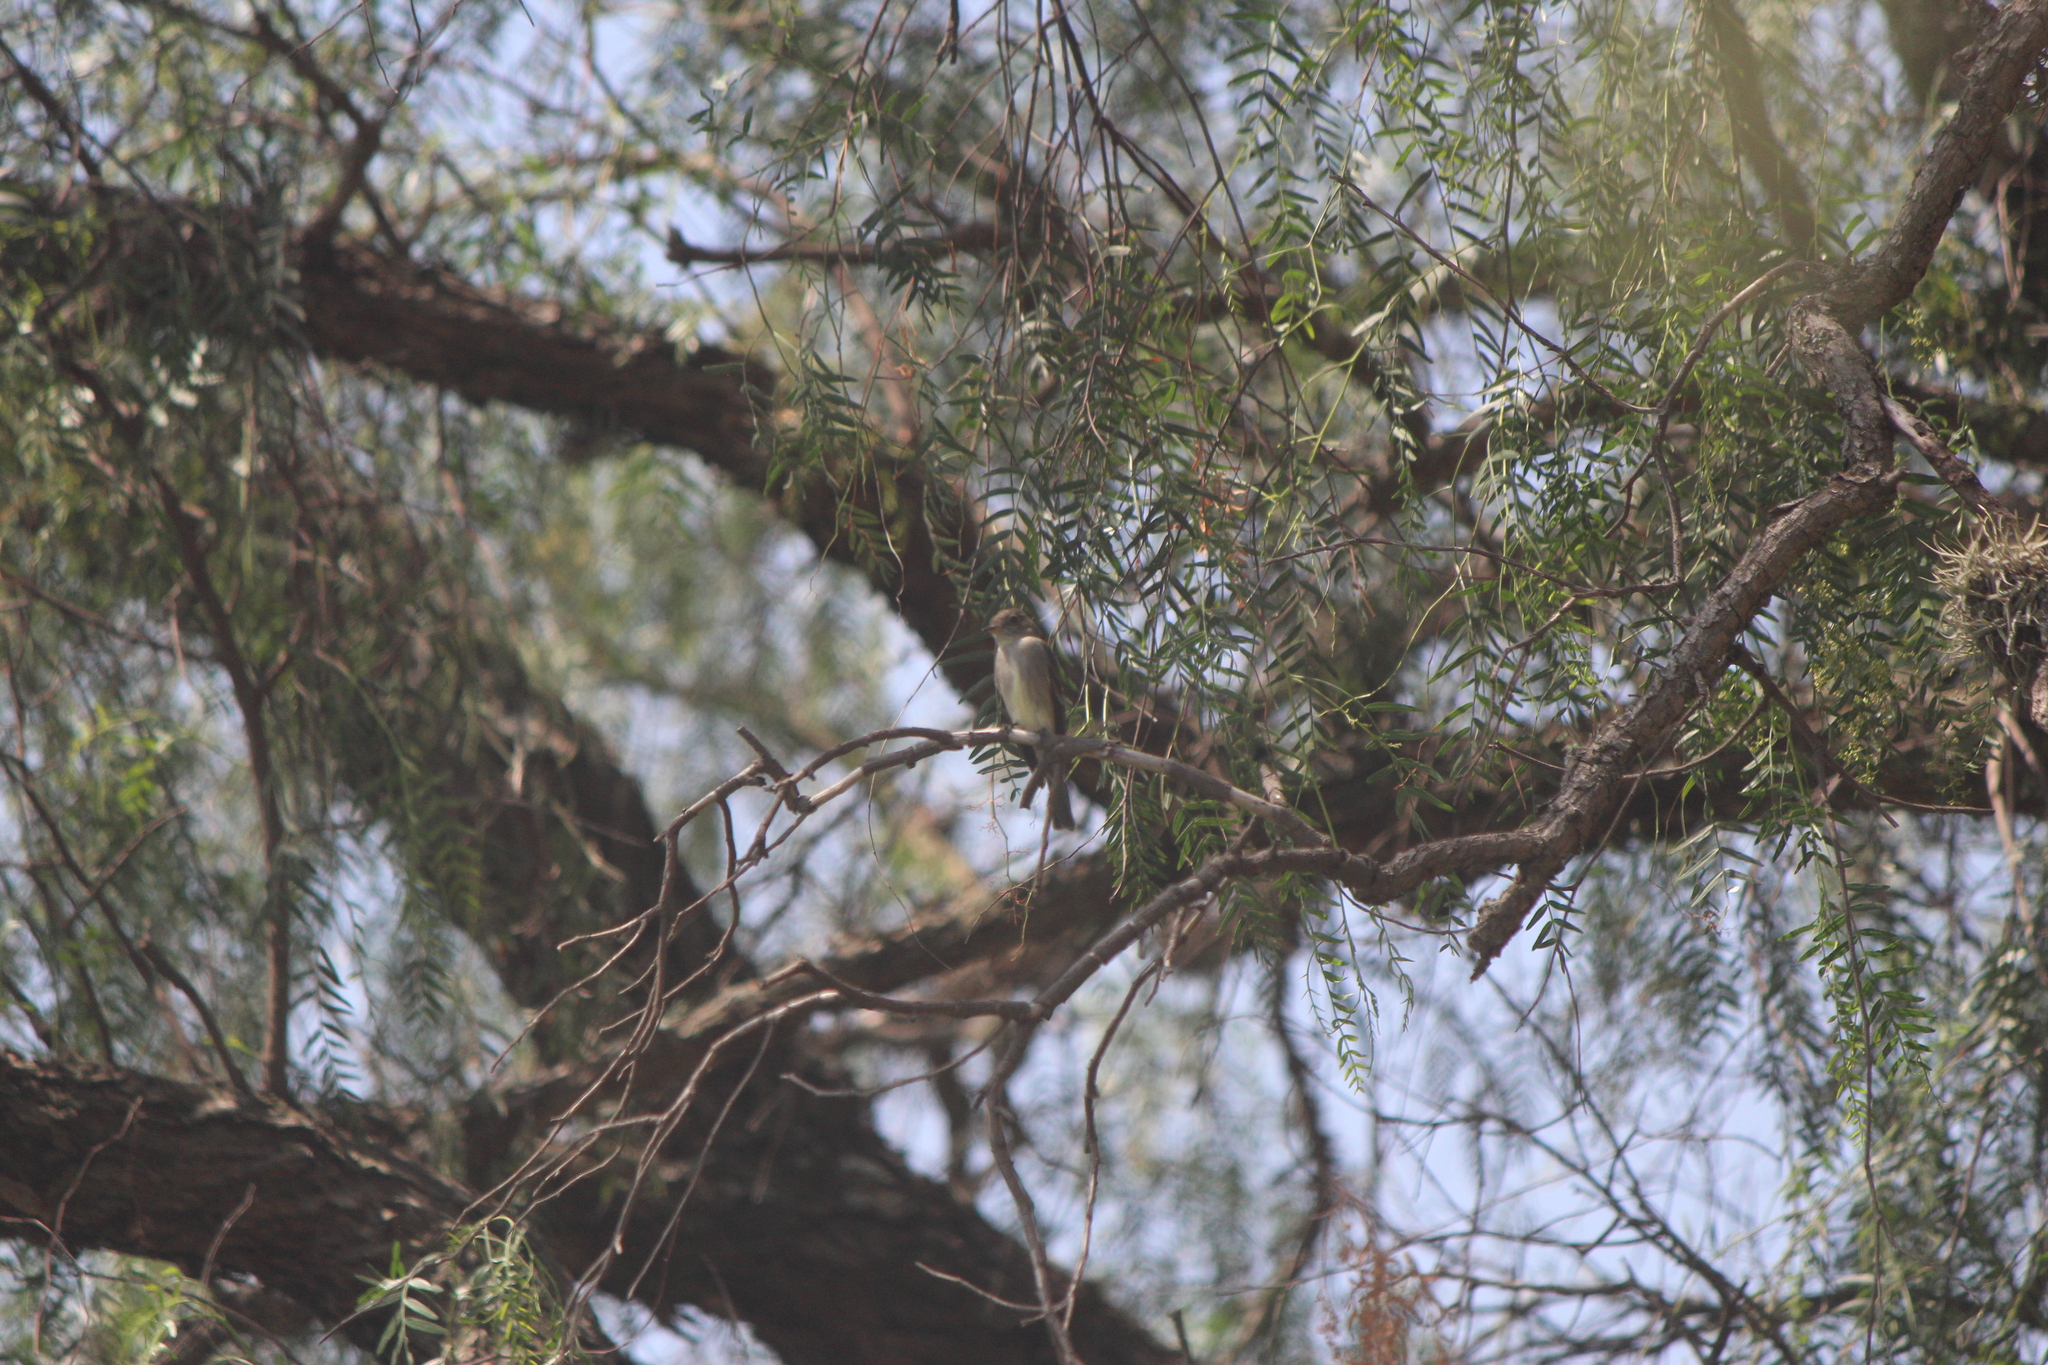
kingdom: Animalia
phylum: Chordata
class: Aves
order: Passeriformes
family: Tyrannidae
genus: Contopus
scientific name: Contopus sordidulus
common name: Western wood-pewee
